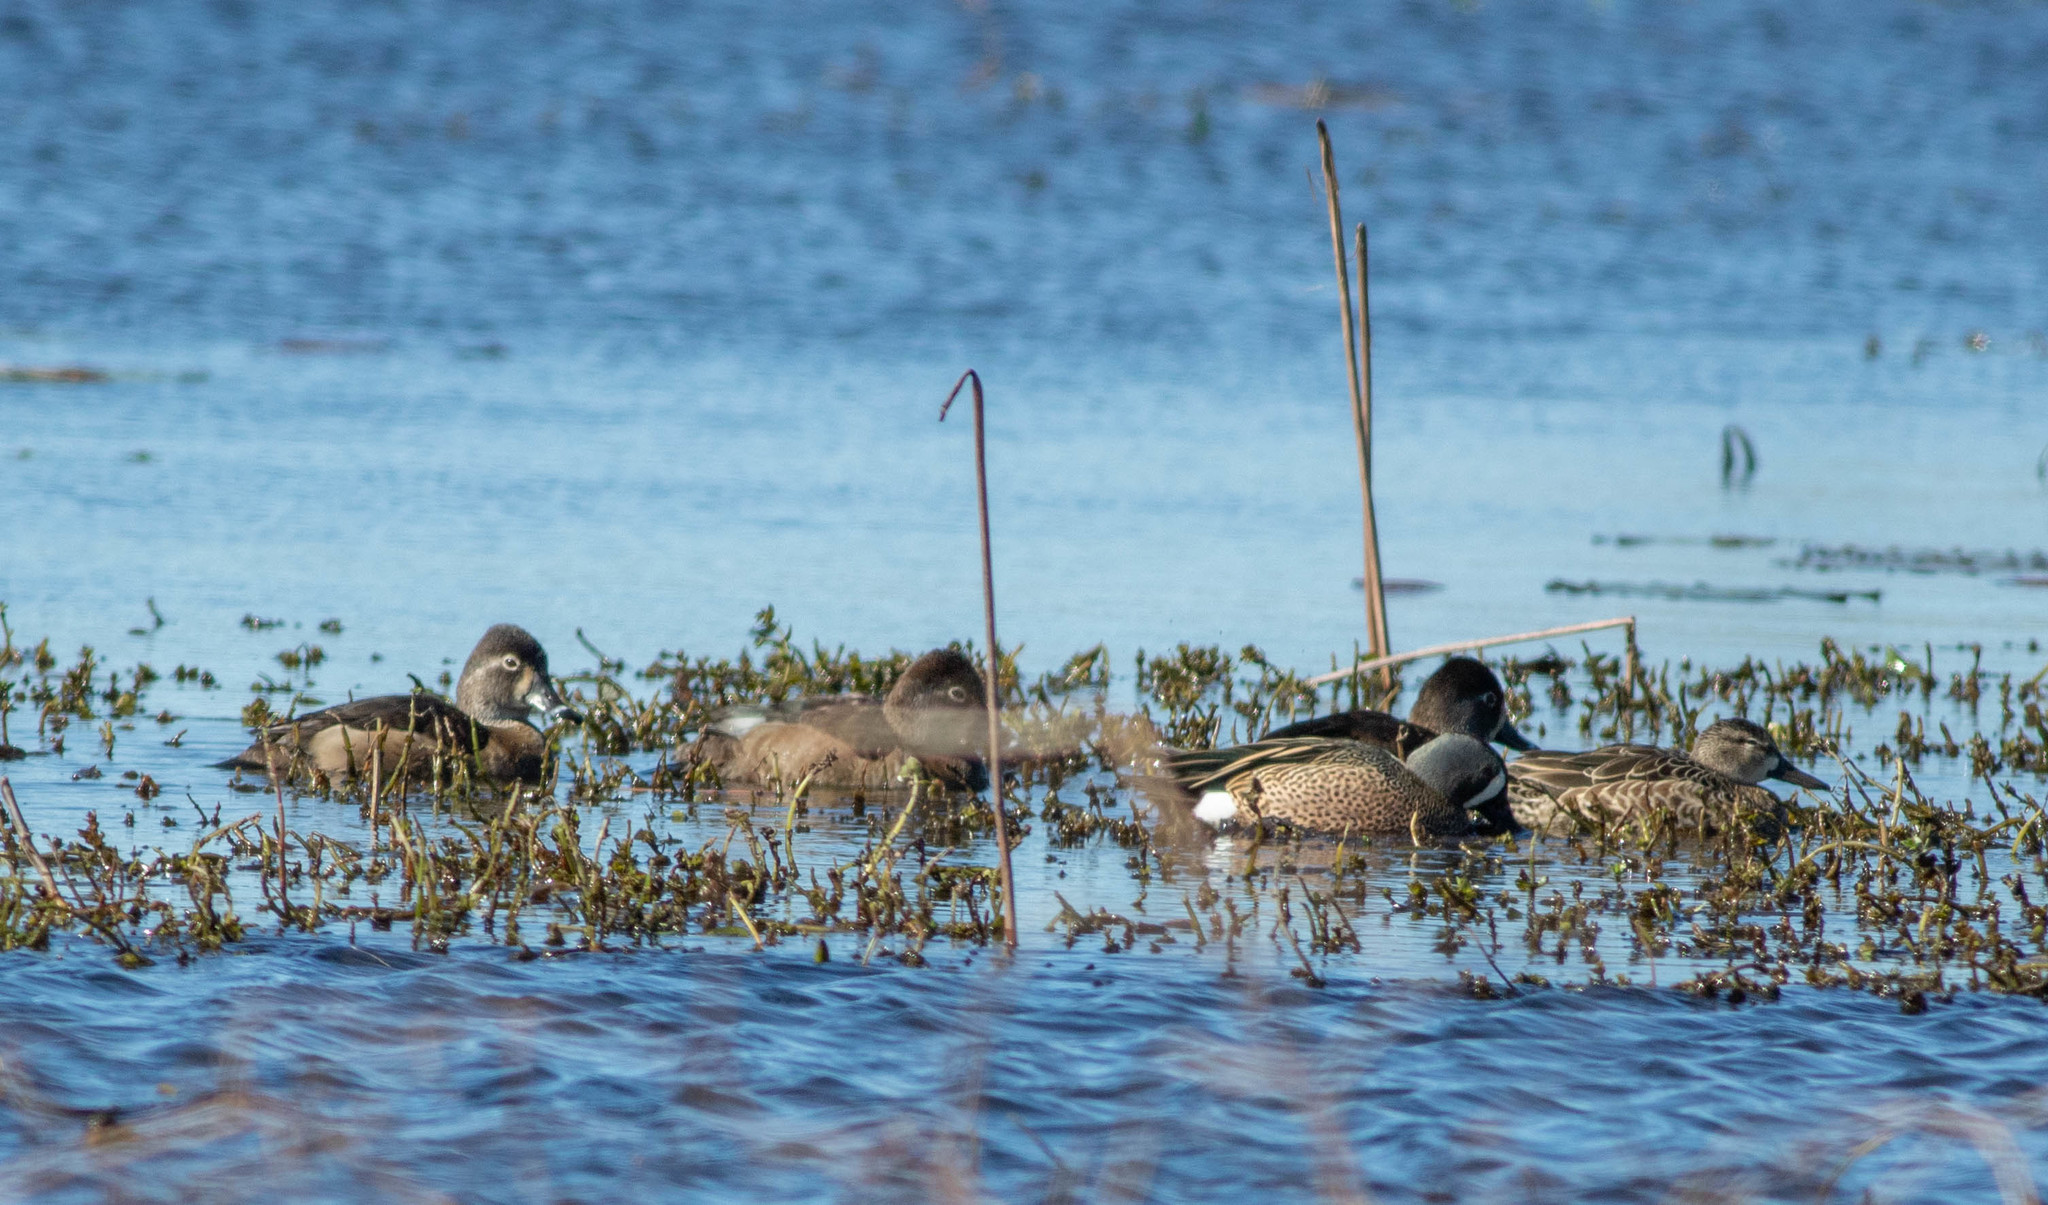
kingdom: Animalia
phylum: Chordata
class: Aves
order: Anseriformes
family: Anatidae
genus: Aythya
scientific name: Aythya collaris
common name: Ring-necked duck
